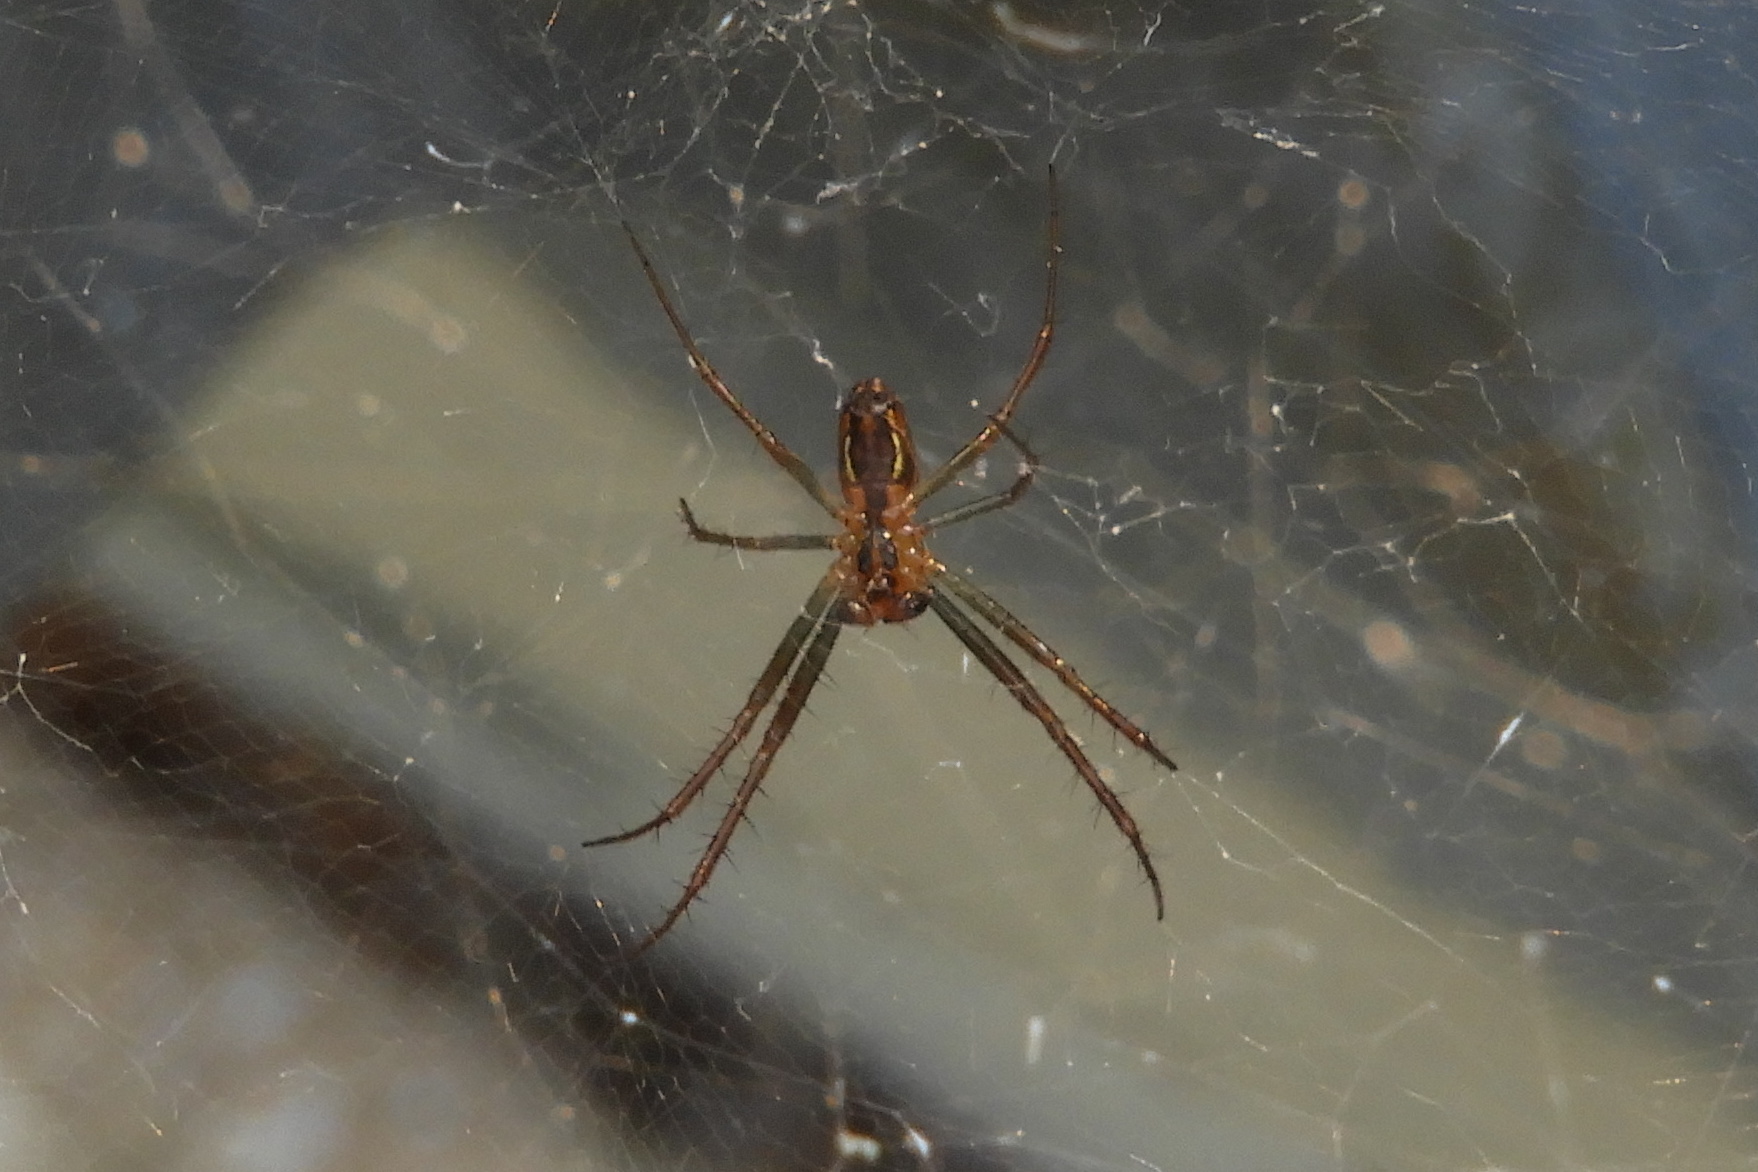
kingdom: Animalia
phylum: Arthropoda
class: Arachnida
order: Araneae
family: Araneidae
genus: Mecynogea
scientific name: Mecynogea lemniscata
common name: Orb weavers
